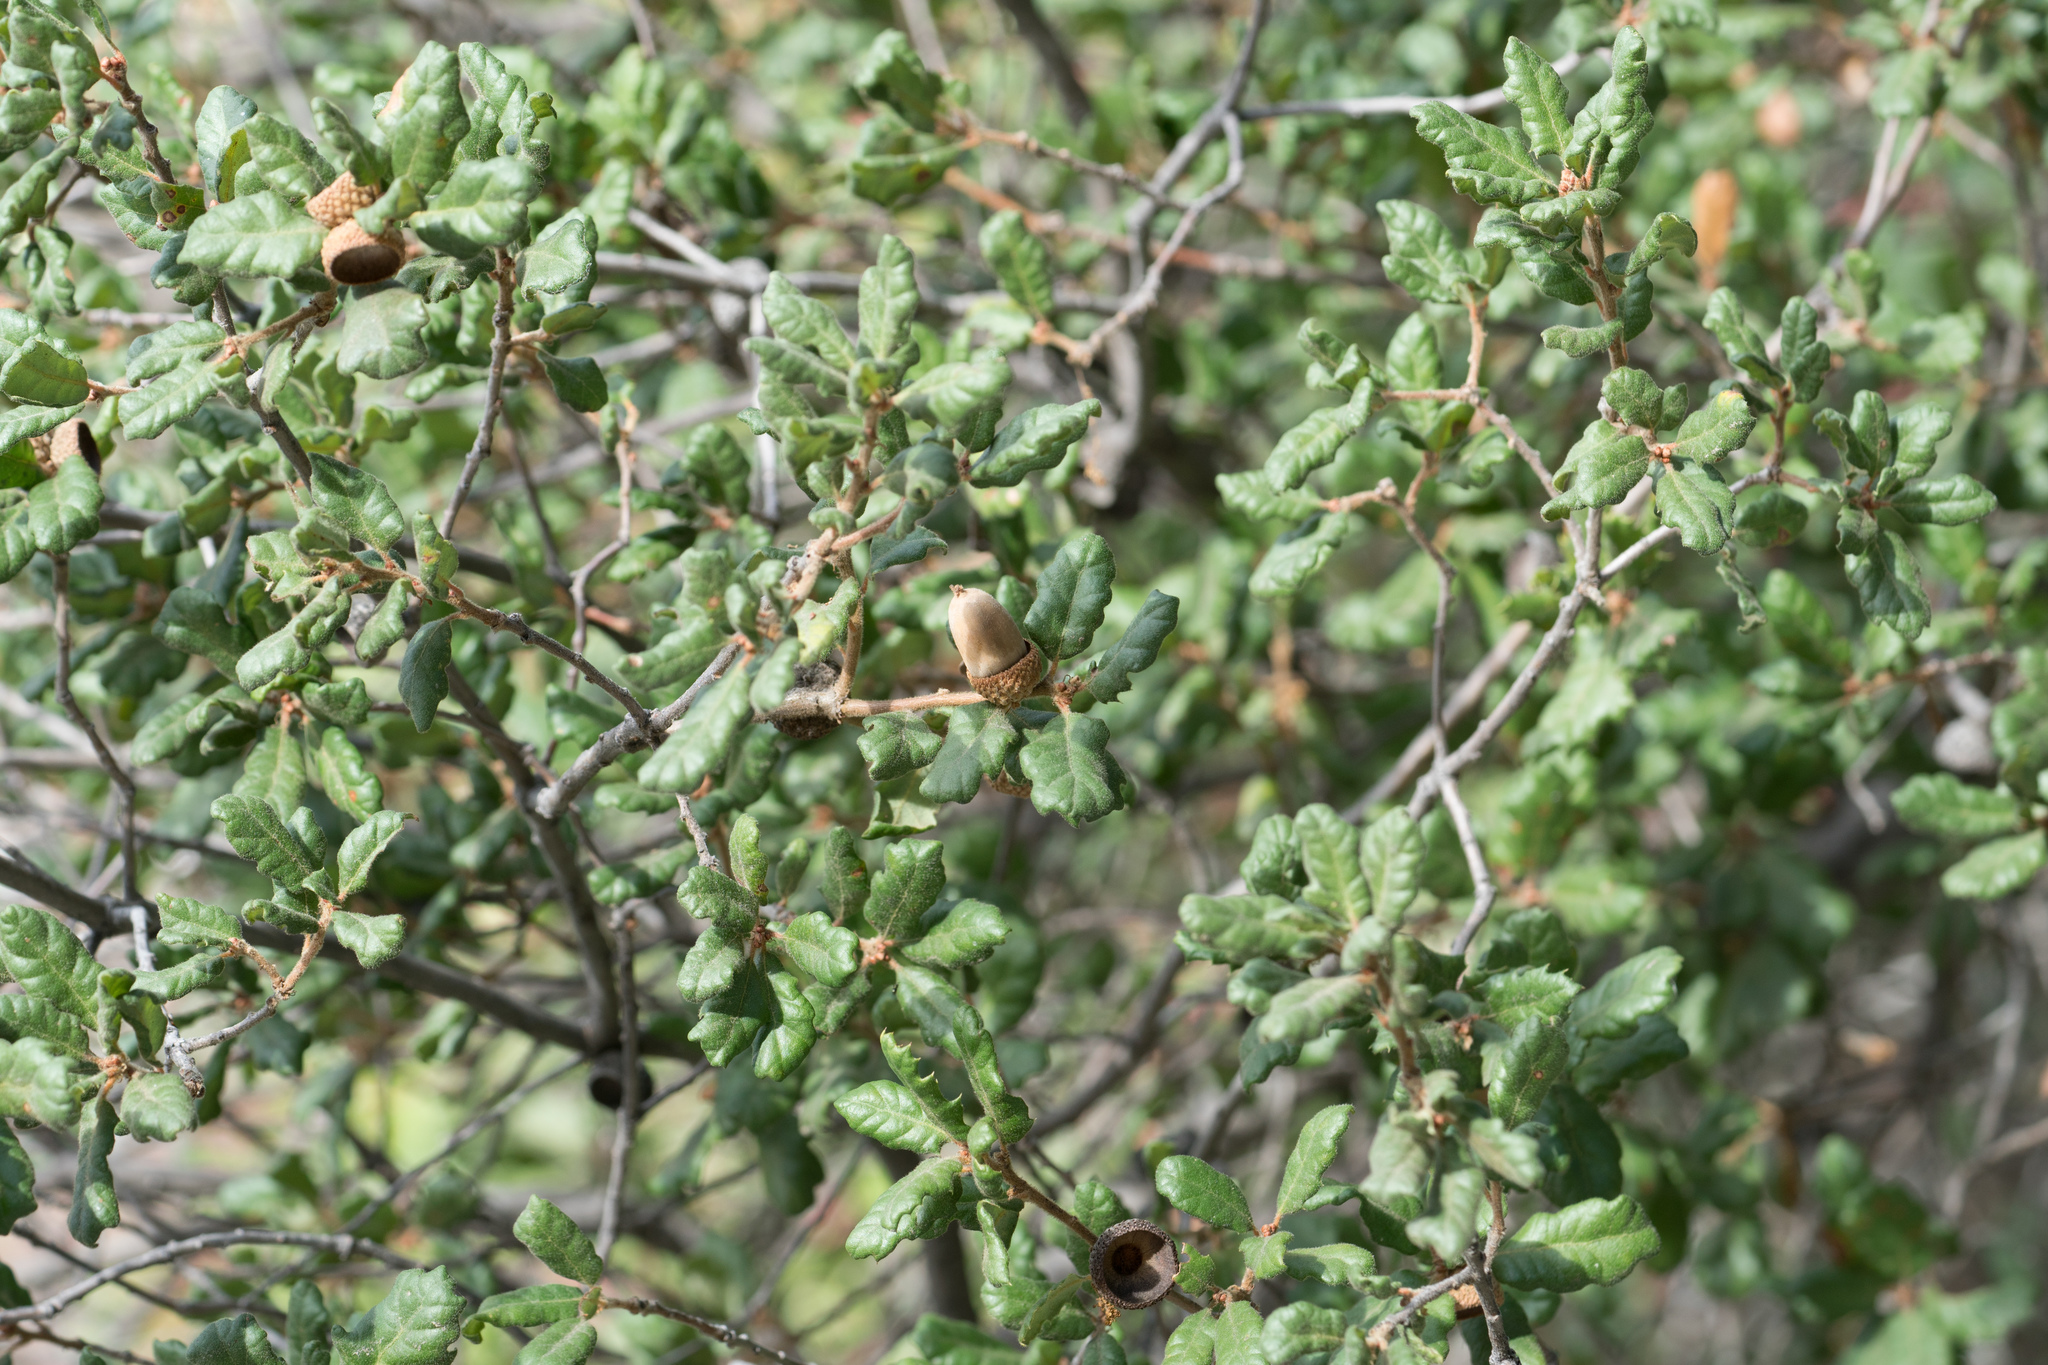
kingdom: Plantae
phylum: Tracheophyta
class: Magnoliopsida
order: Fagales
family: Fagaceae
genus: Quercus
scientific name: Quercus durata
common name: Leather oak
